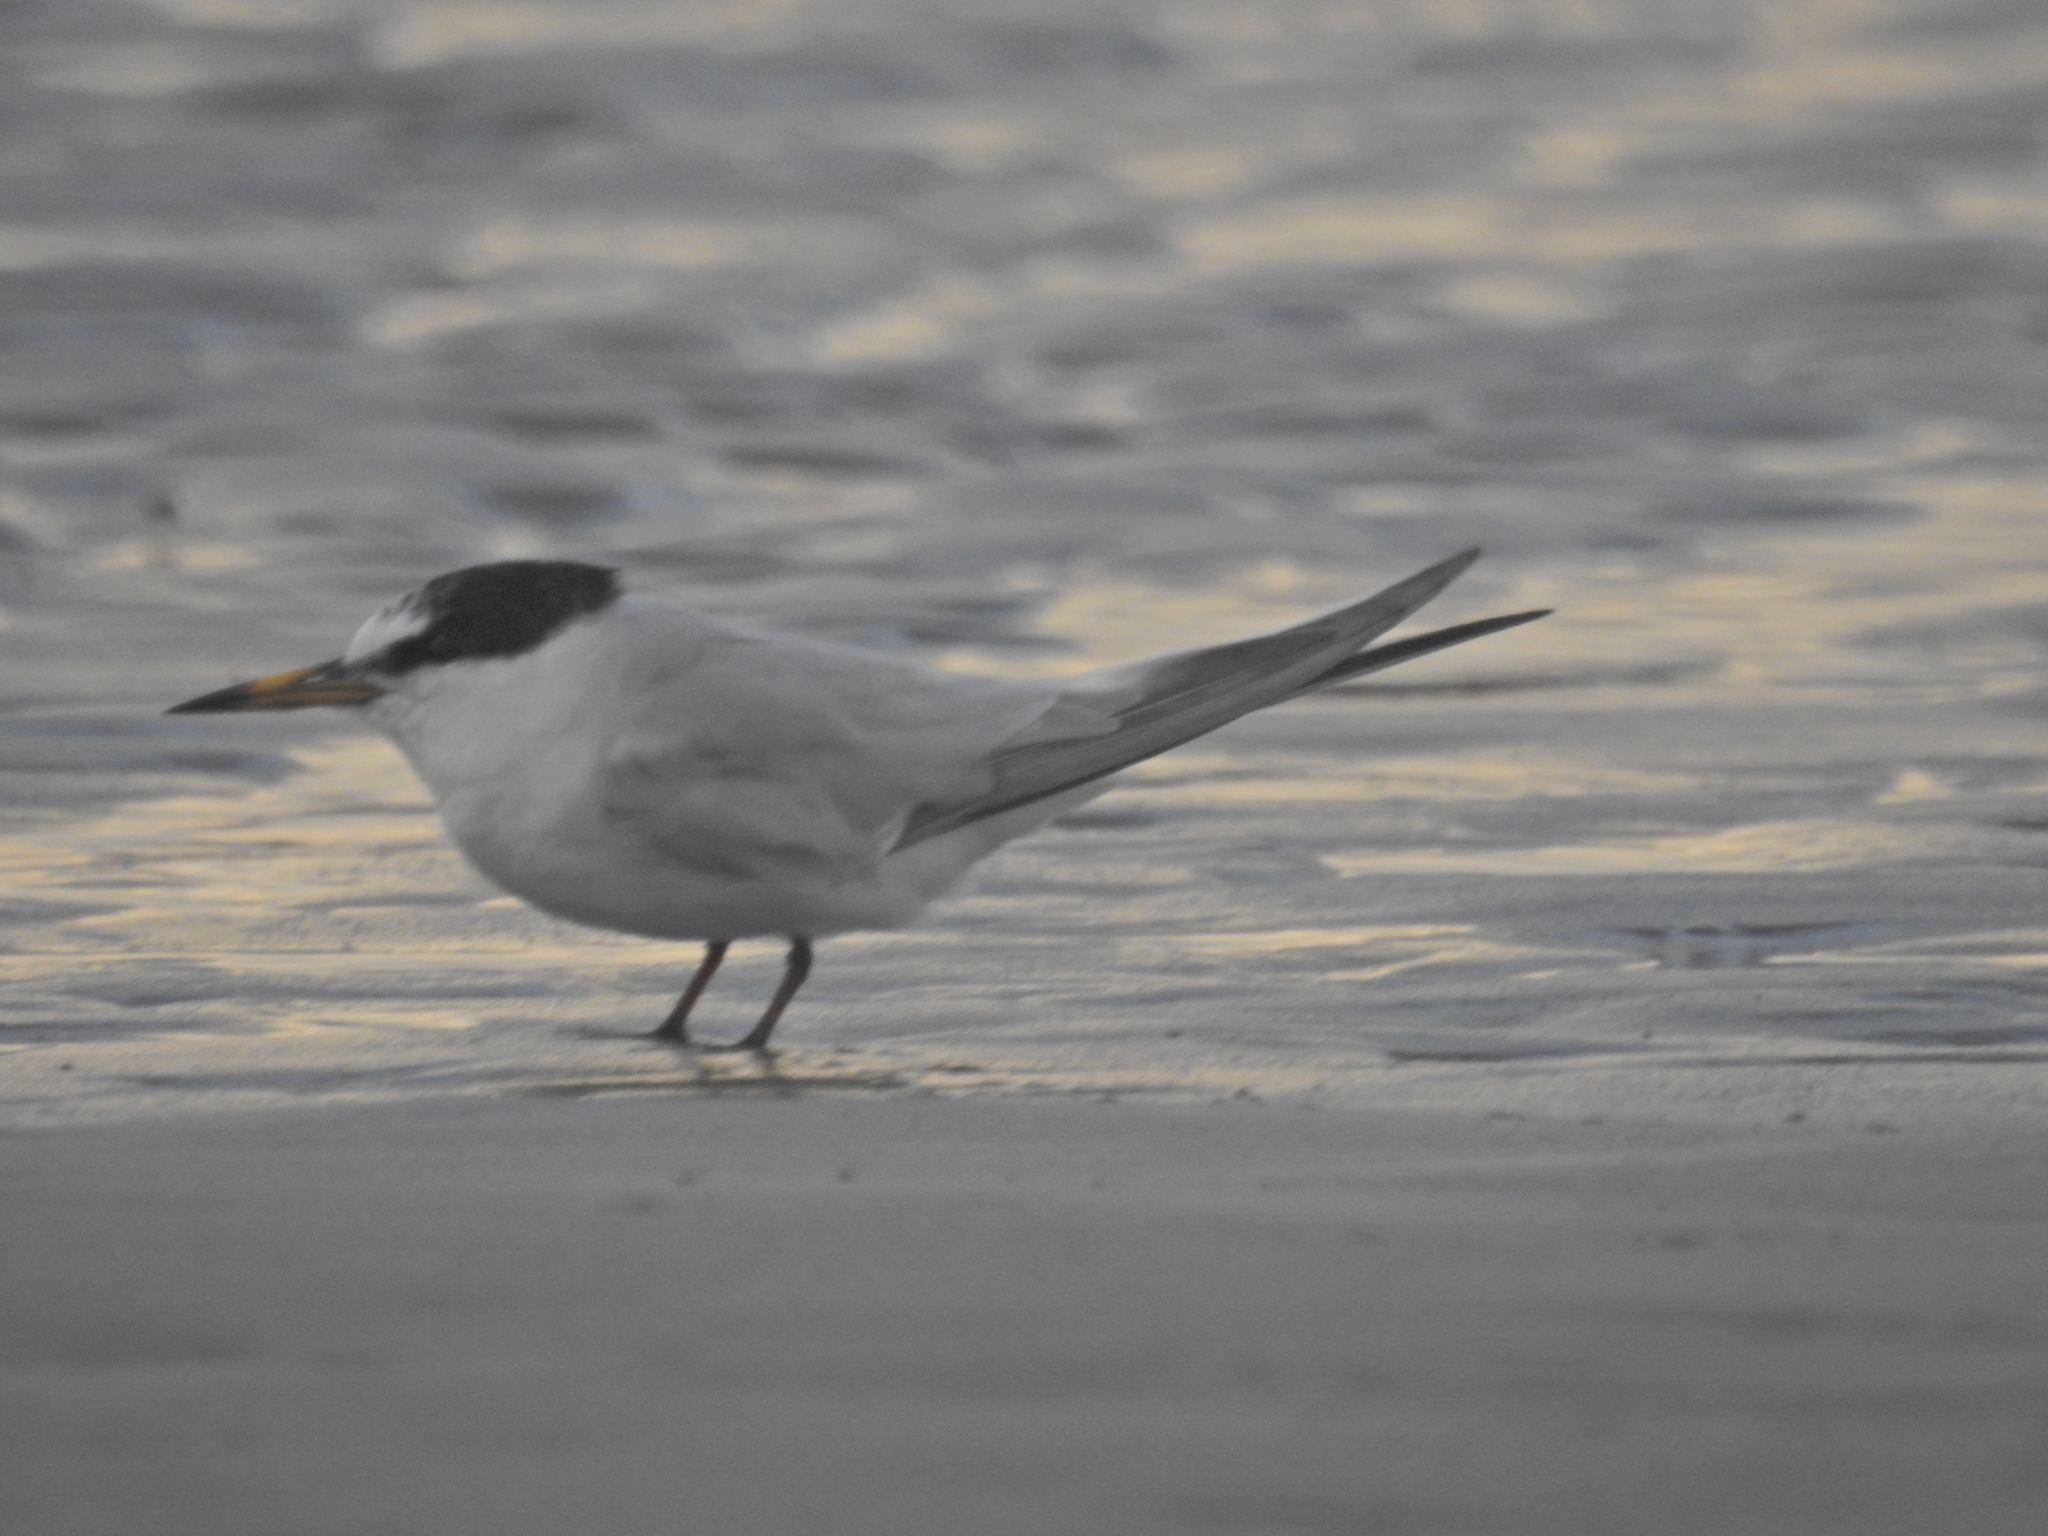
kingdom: Animalia
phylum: Chordata
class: Aves
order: Charadriiformes
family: Laridae
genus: Sternula
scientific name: Sternula albifrons
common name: Little tern
